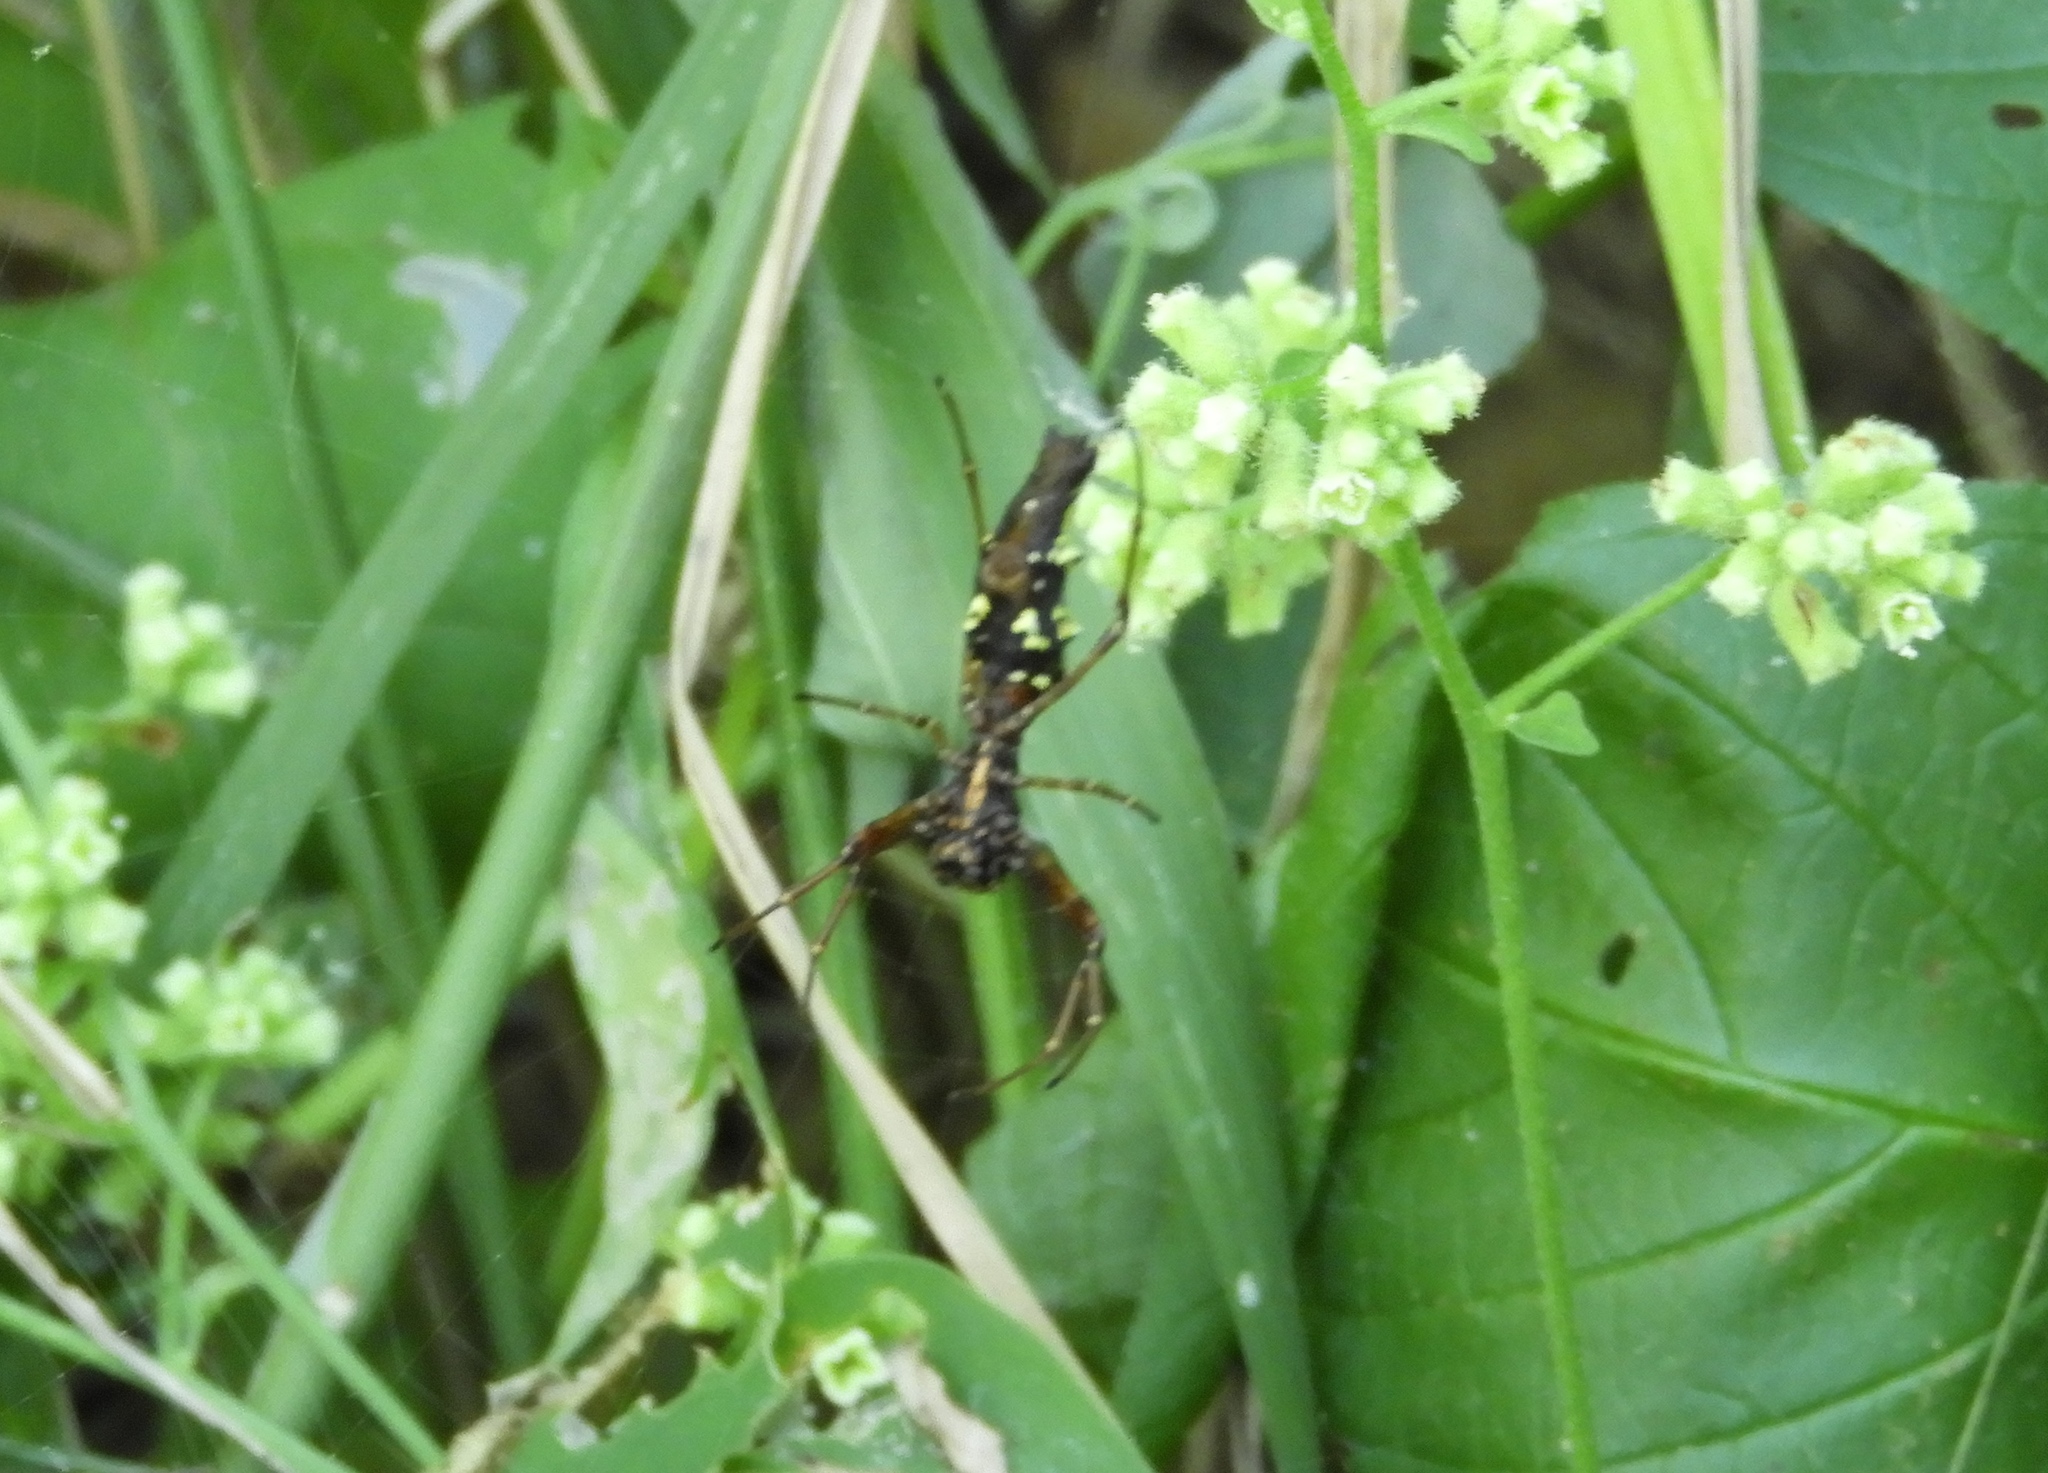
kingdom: Animalia
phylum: Arthropoda
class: Arachnida
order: Araneae
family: Araneidae
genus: Edricus
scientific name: Edricus productus
